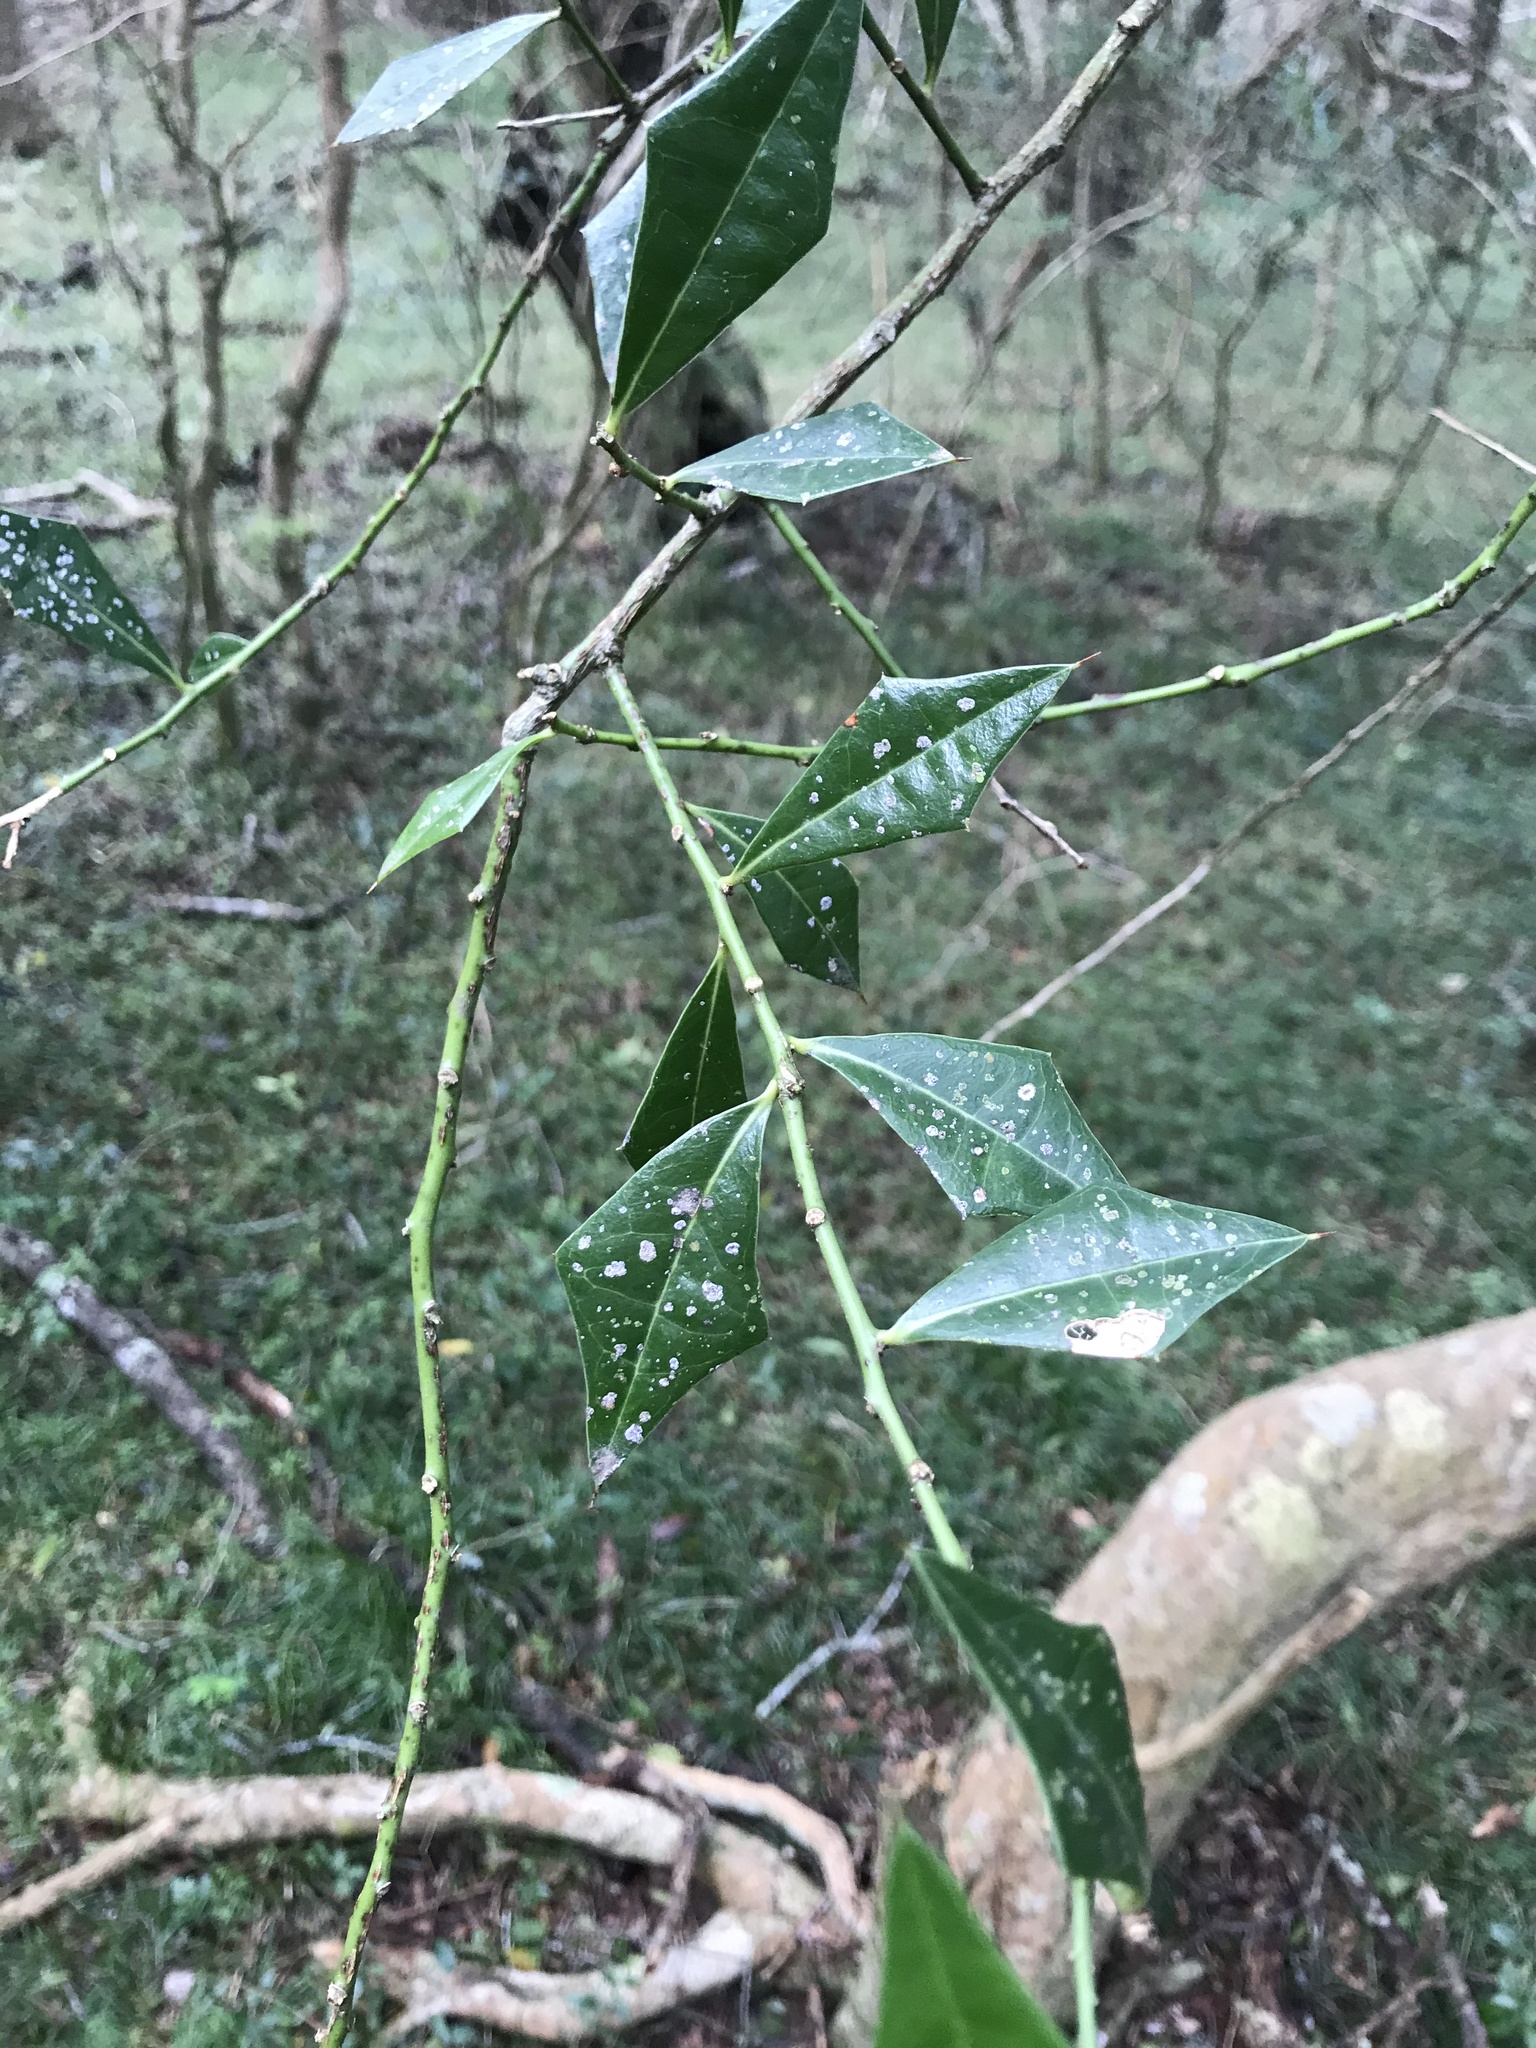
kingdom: Plantae
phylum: Tracheophyta
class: Magnoliopsida
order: Santalales
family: Cervantesiaceae
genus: Jodina
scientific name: Jodina rhombifolia
